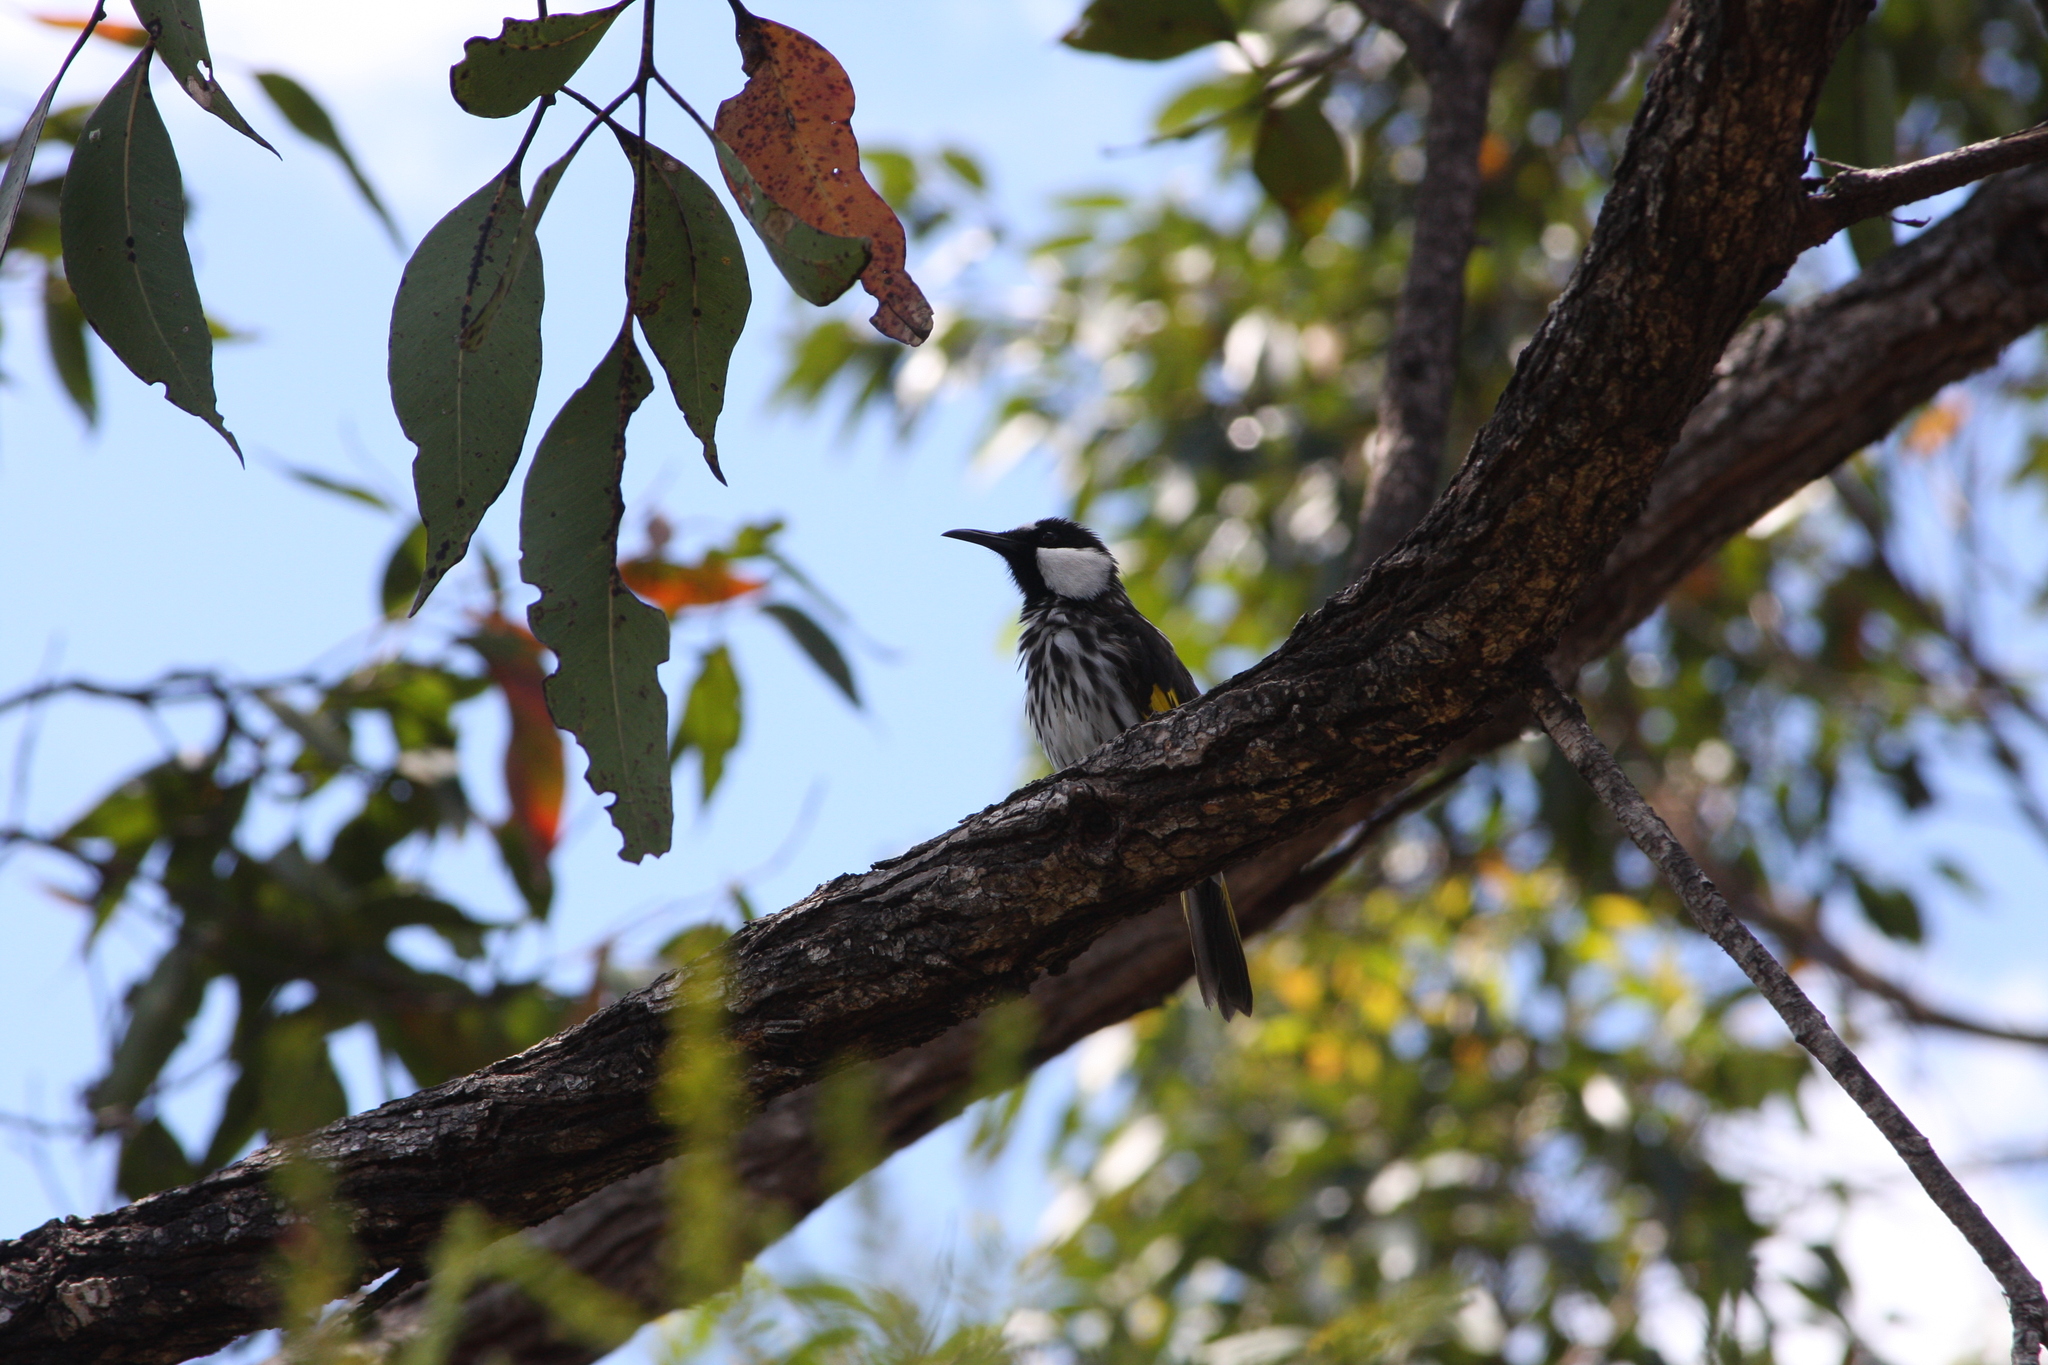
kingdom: Animalia
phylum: Chordata
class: Aves
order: Passeriformes
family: Meliphagidae
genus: Phylidonyris
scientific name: Phylidonyris niger
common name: White-cheeked honeyeater
